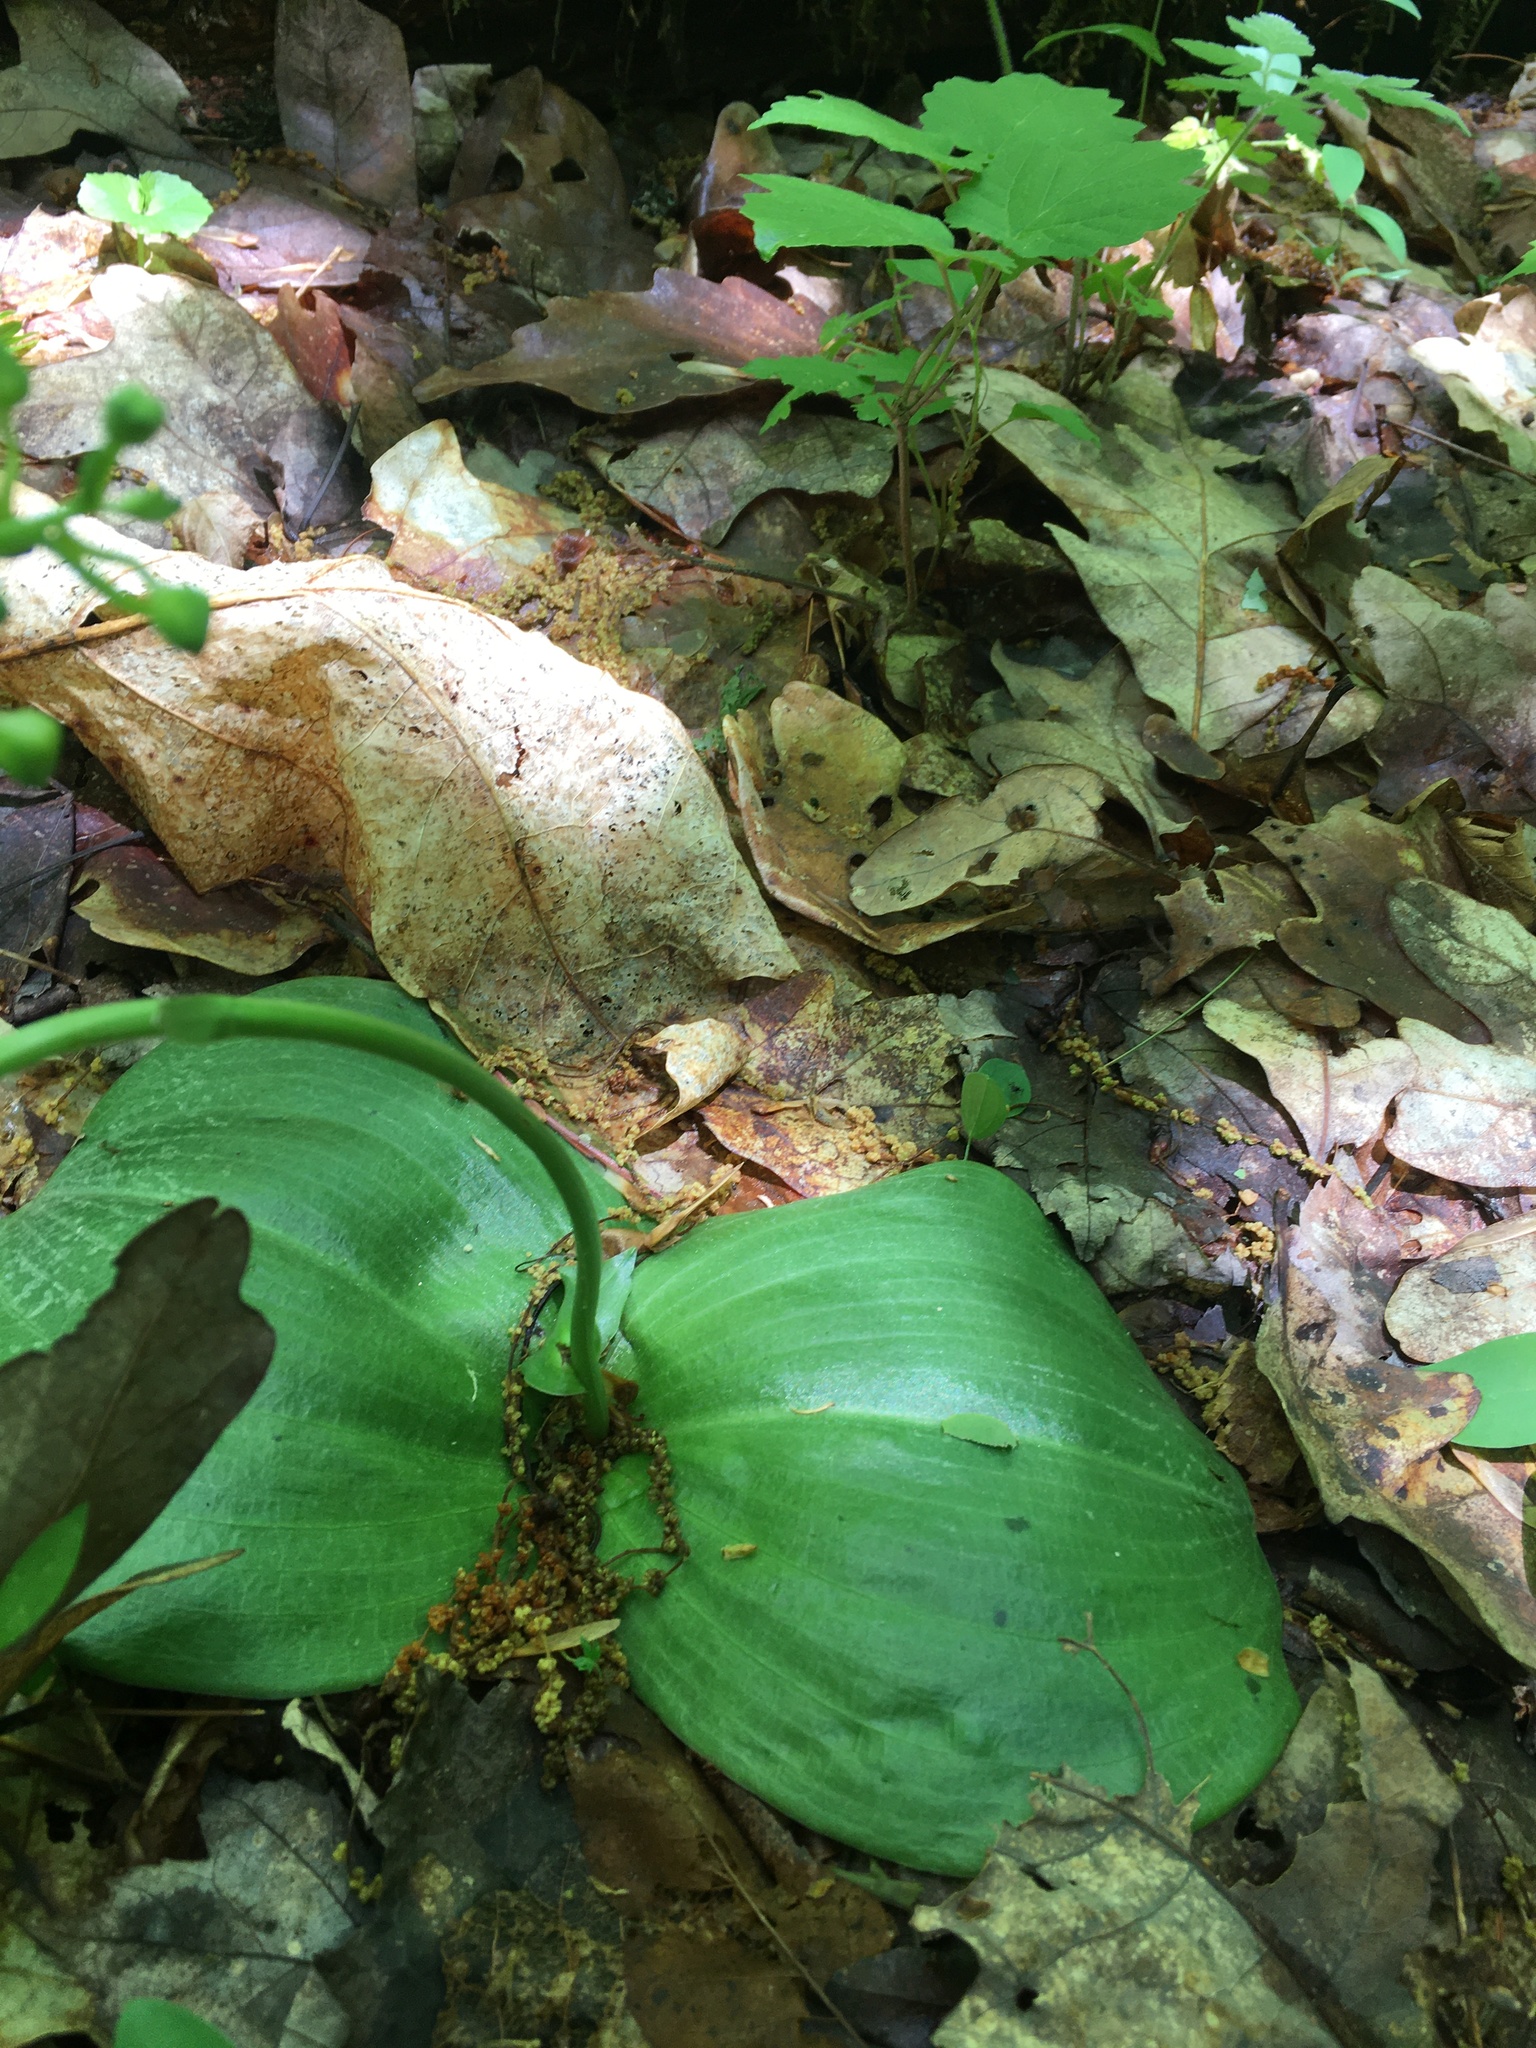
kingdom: Plantae
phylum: Tracheophyta
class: Liliopsida
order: Asparagales
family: Orchidaceae
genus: Platanthera
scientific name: Platanthera orbiculata
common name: Large round-leaved orchid
